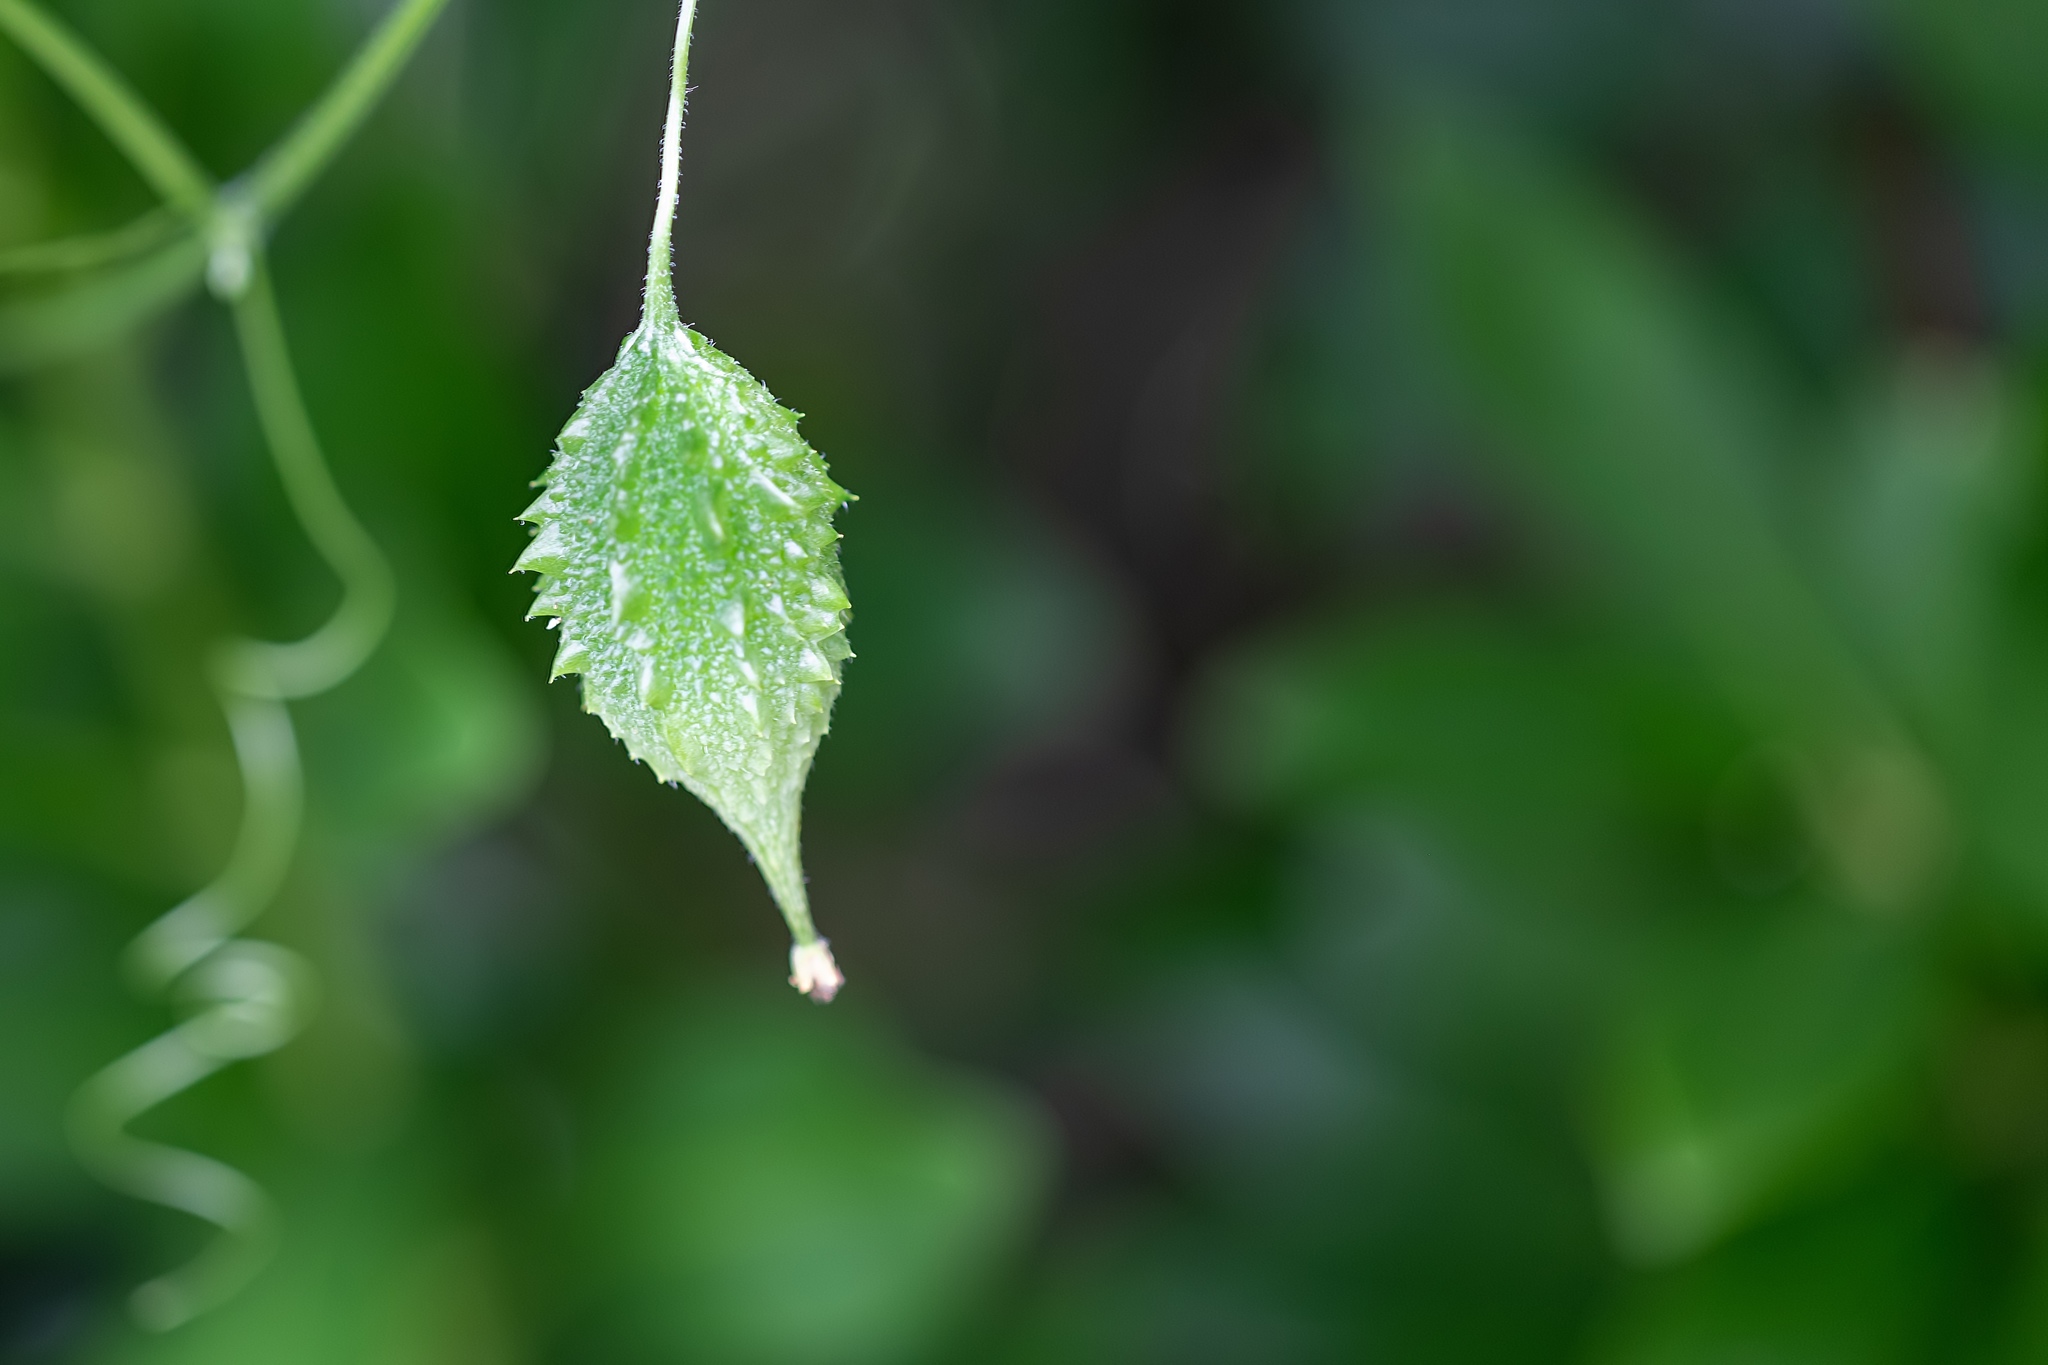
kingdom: Plantae
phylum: Tracheophyta
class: Magnoliopsida
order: Cucurbitales
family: Cucurbitaceae
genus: Momordica
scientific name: Momordica charantia
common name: Balsampear
